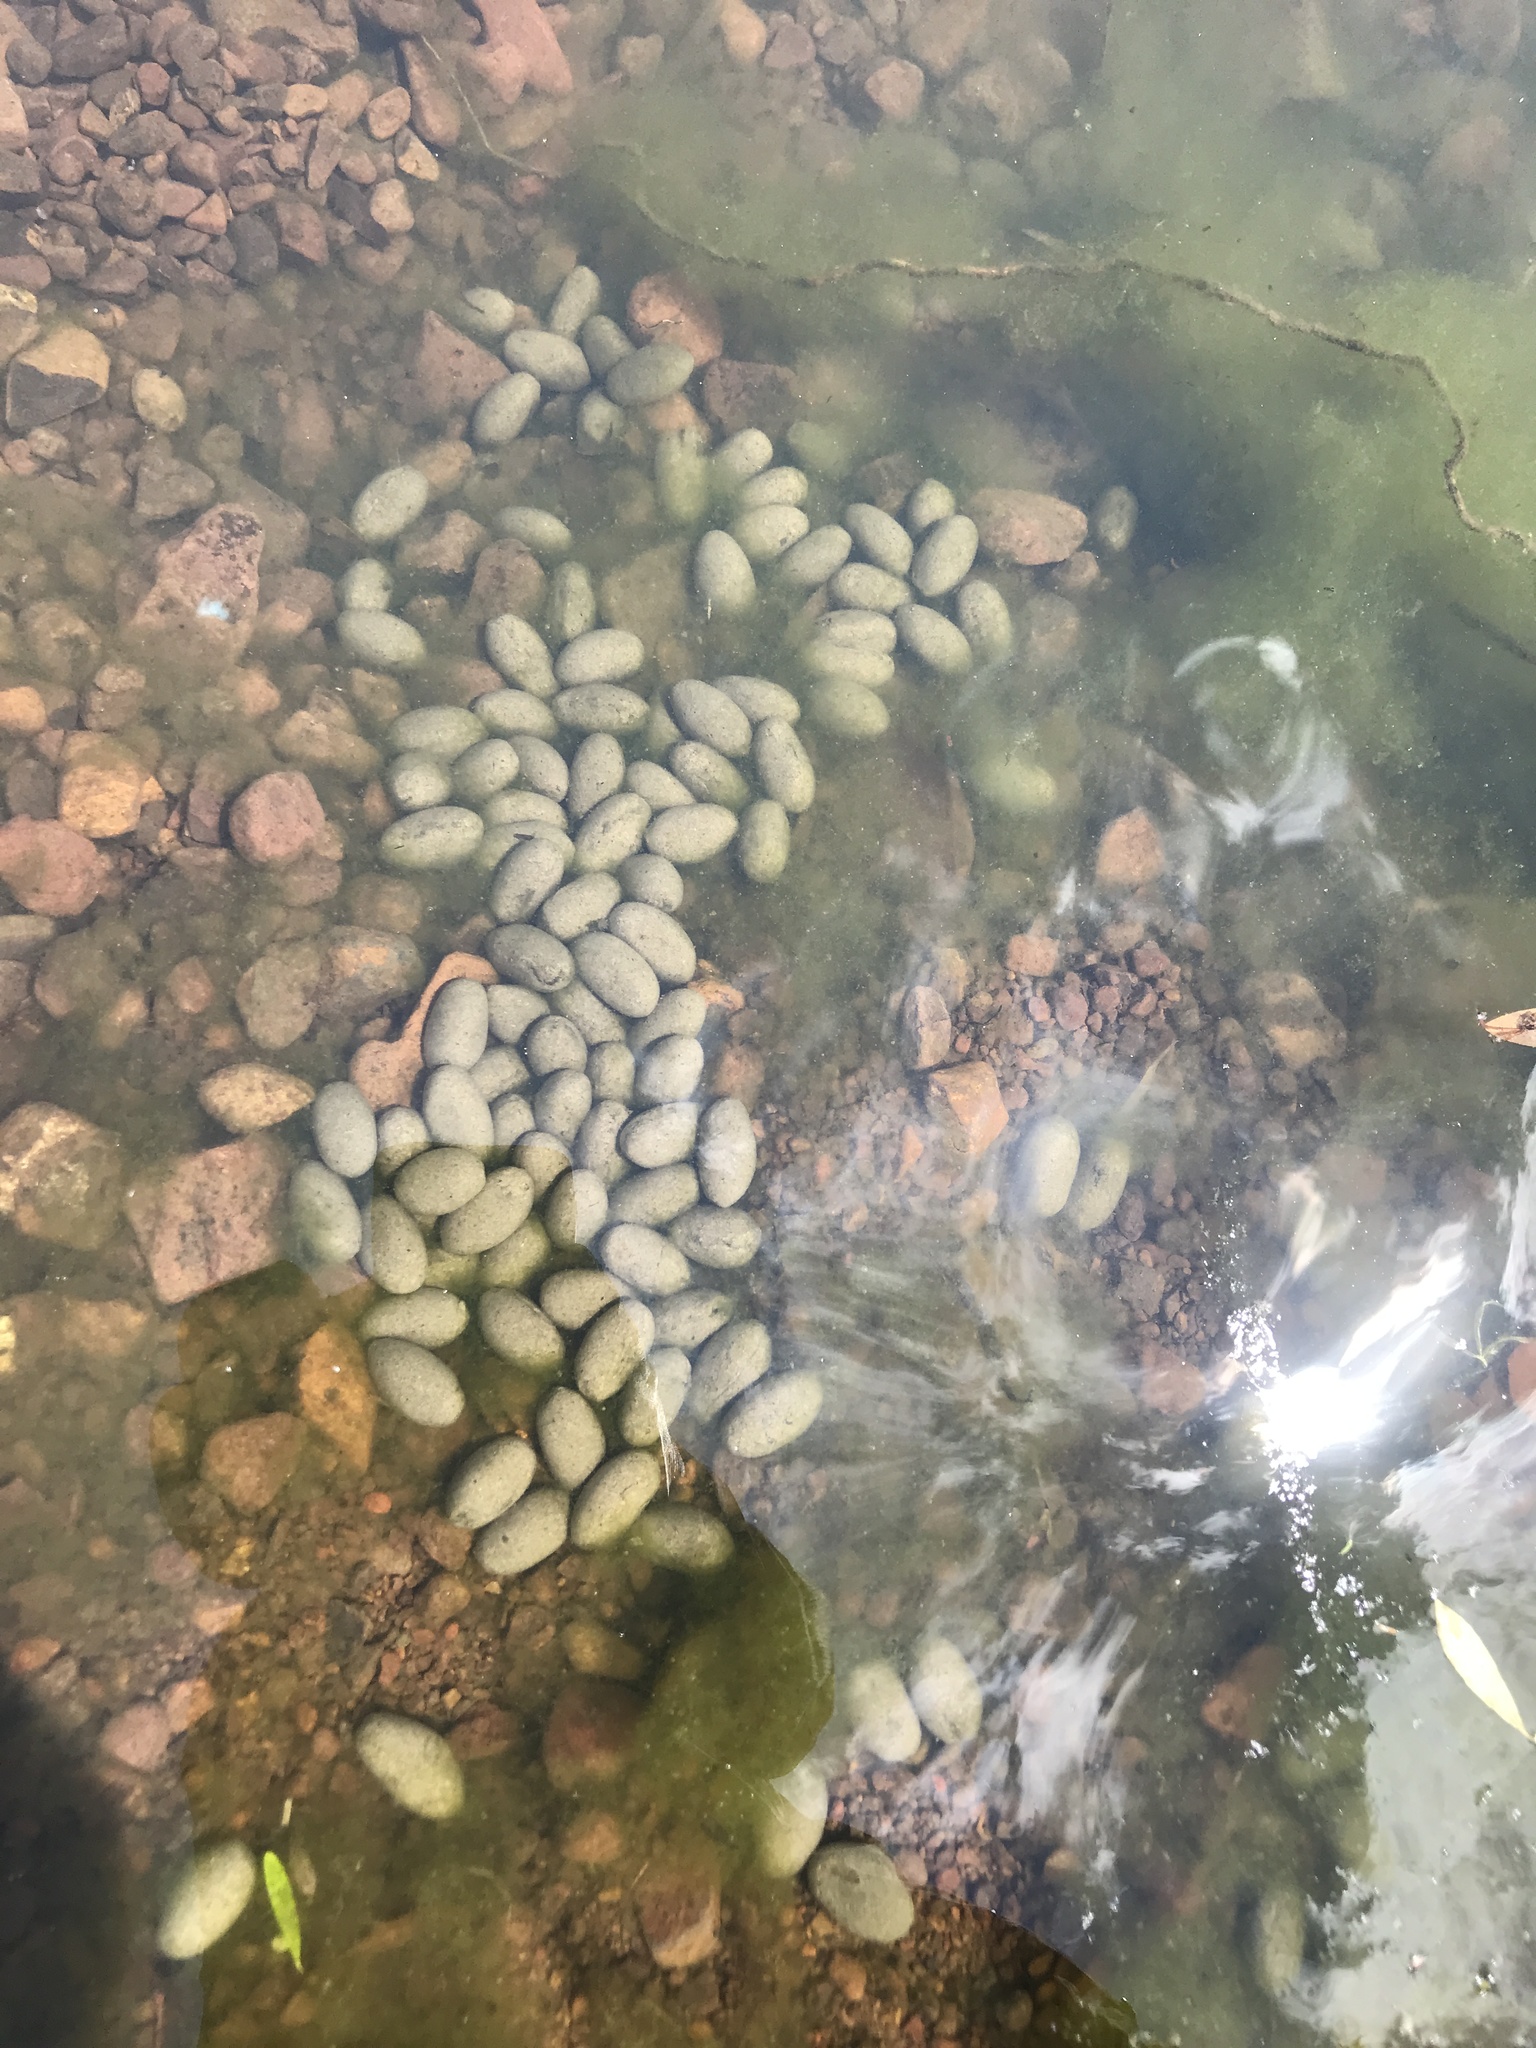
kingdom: Animalia
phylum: Chordata
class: Mammalia
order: Rodentia
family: Caviidae
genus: Hydrochoerus
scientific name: Hydrochoerus hydrochaeris
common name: Capybara
